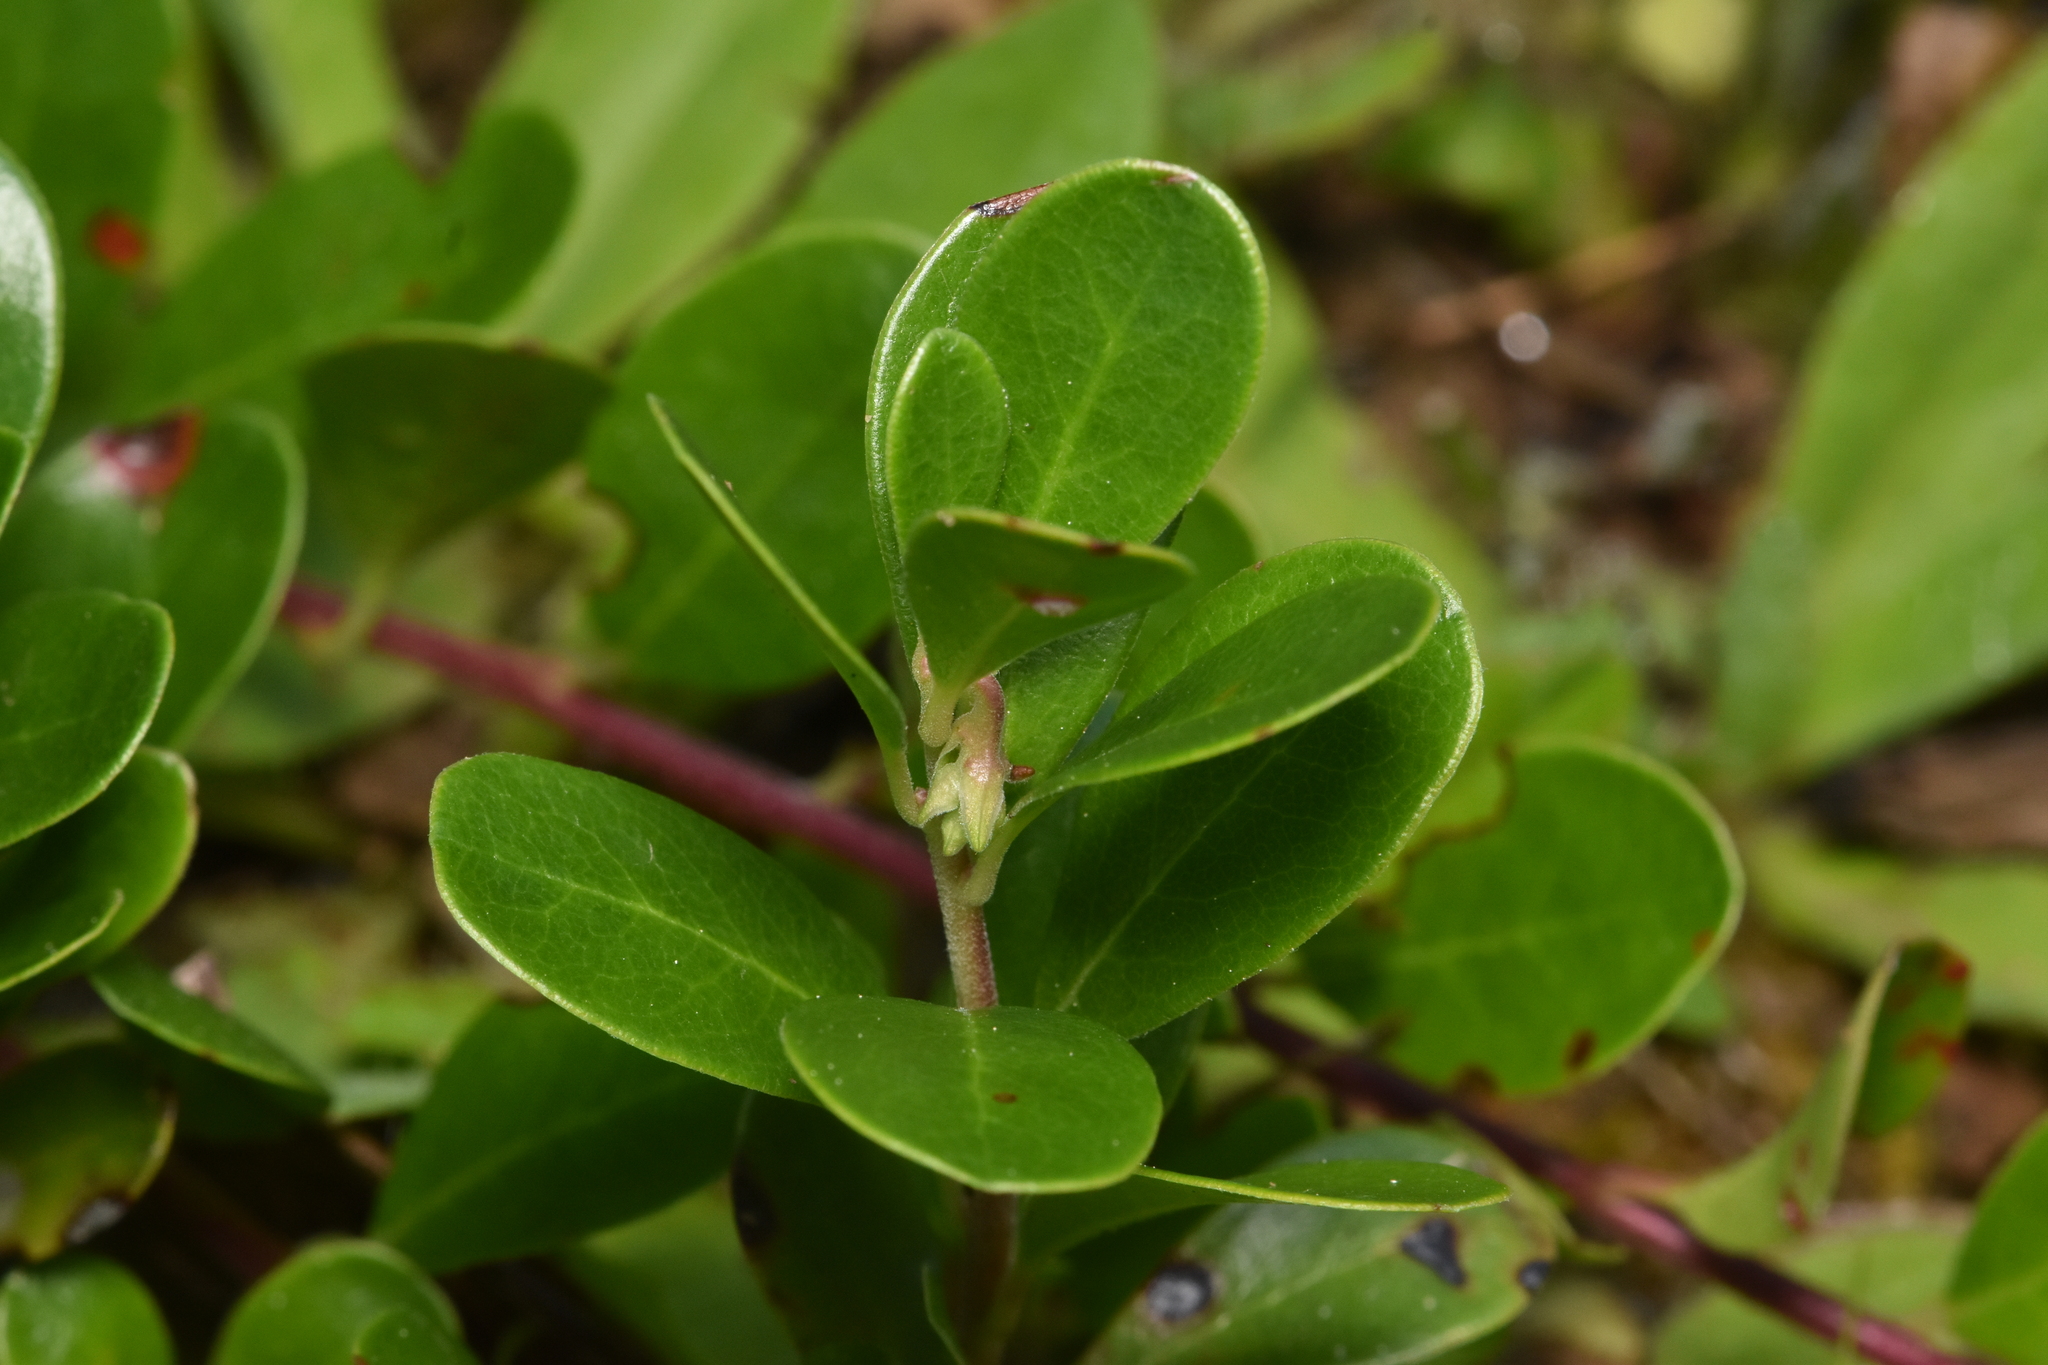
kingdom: Plantae
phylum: Tracheophyta
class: Magnoliopsida
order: Ericales
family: Ericaceae
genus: Arctostaphylos
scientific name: Arctostaphylos uva-ursi
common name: Bearberry
